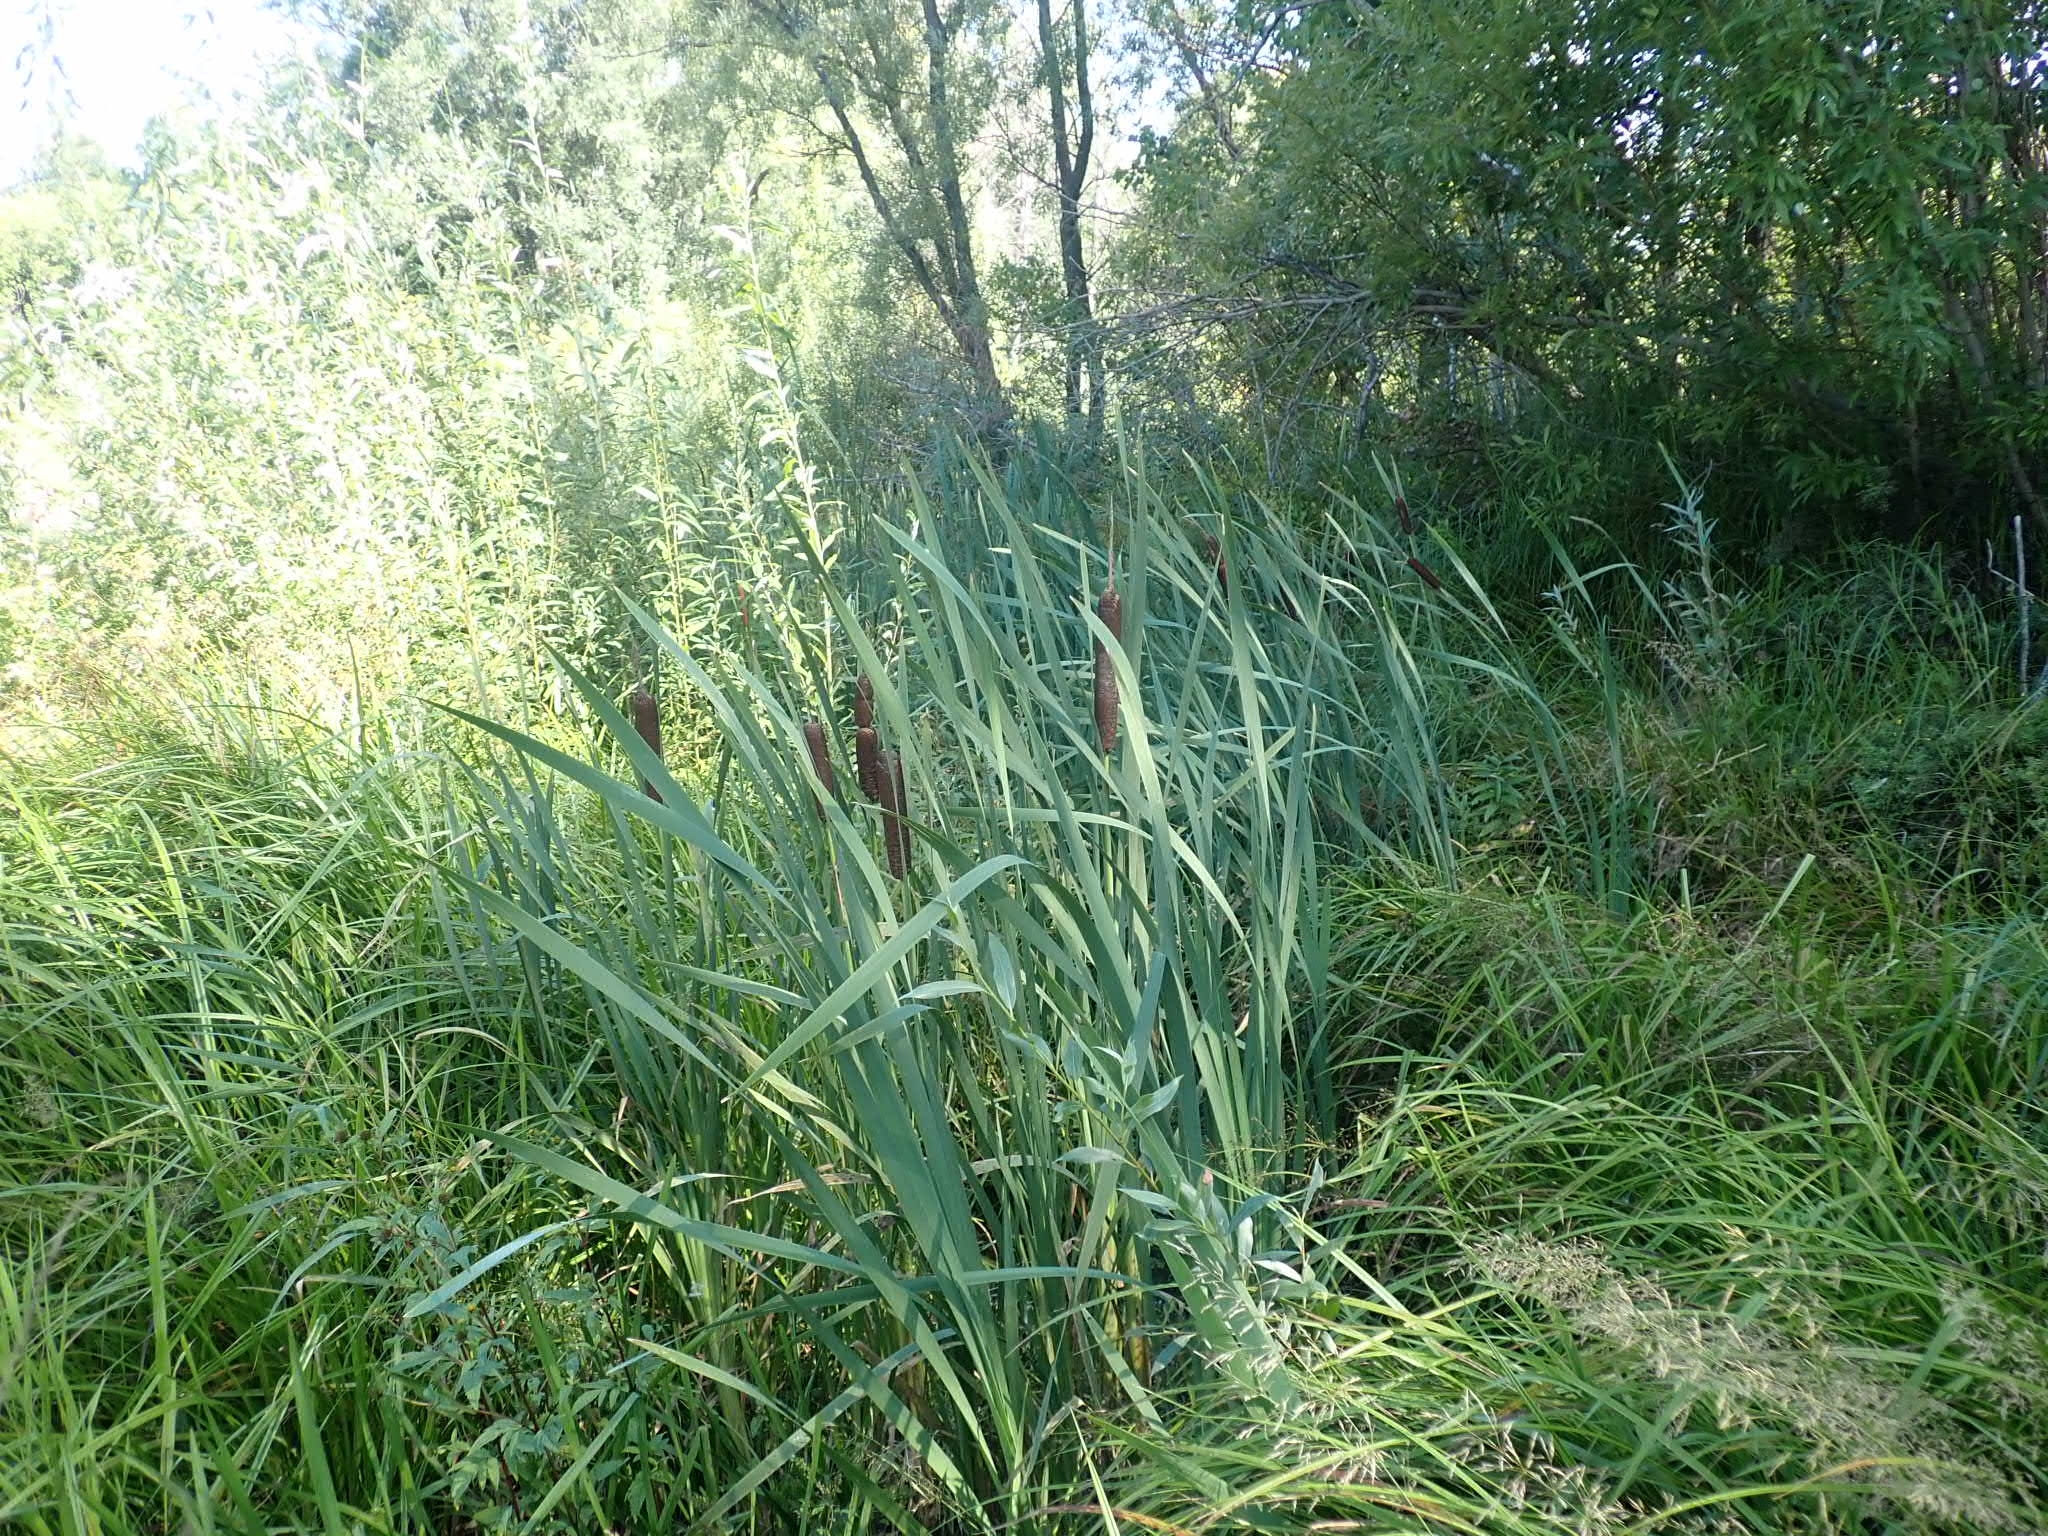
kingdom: Plantae
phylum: Tracheophyta
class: Liliopsida
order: Poales
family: Typhaceae
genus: Typha
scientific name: Typha latifolia
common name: Broadleaf cattail
